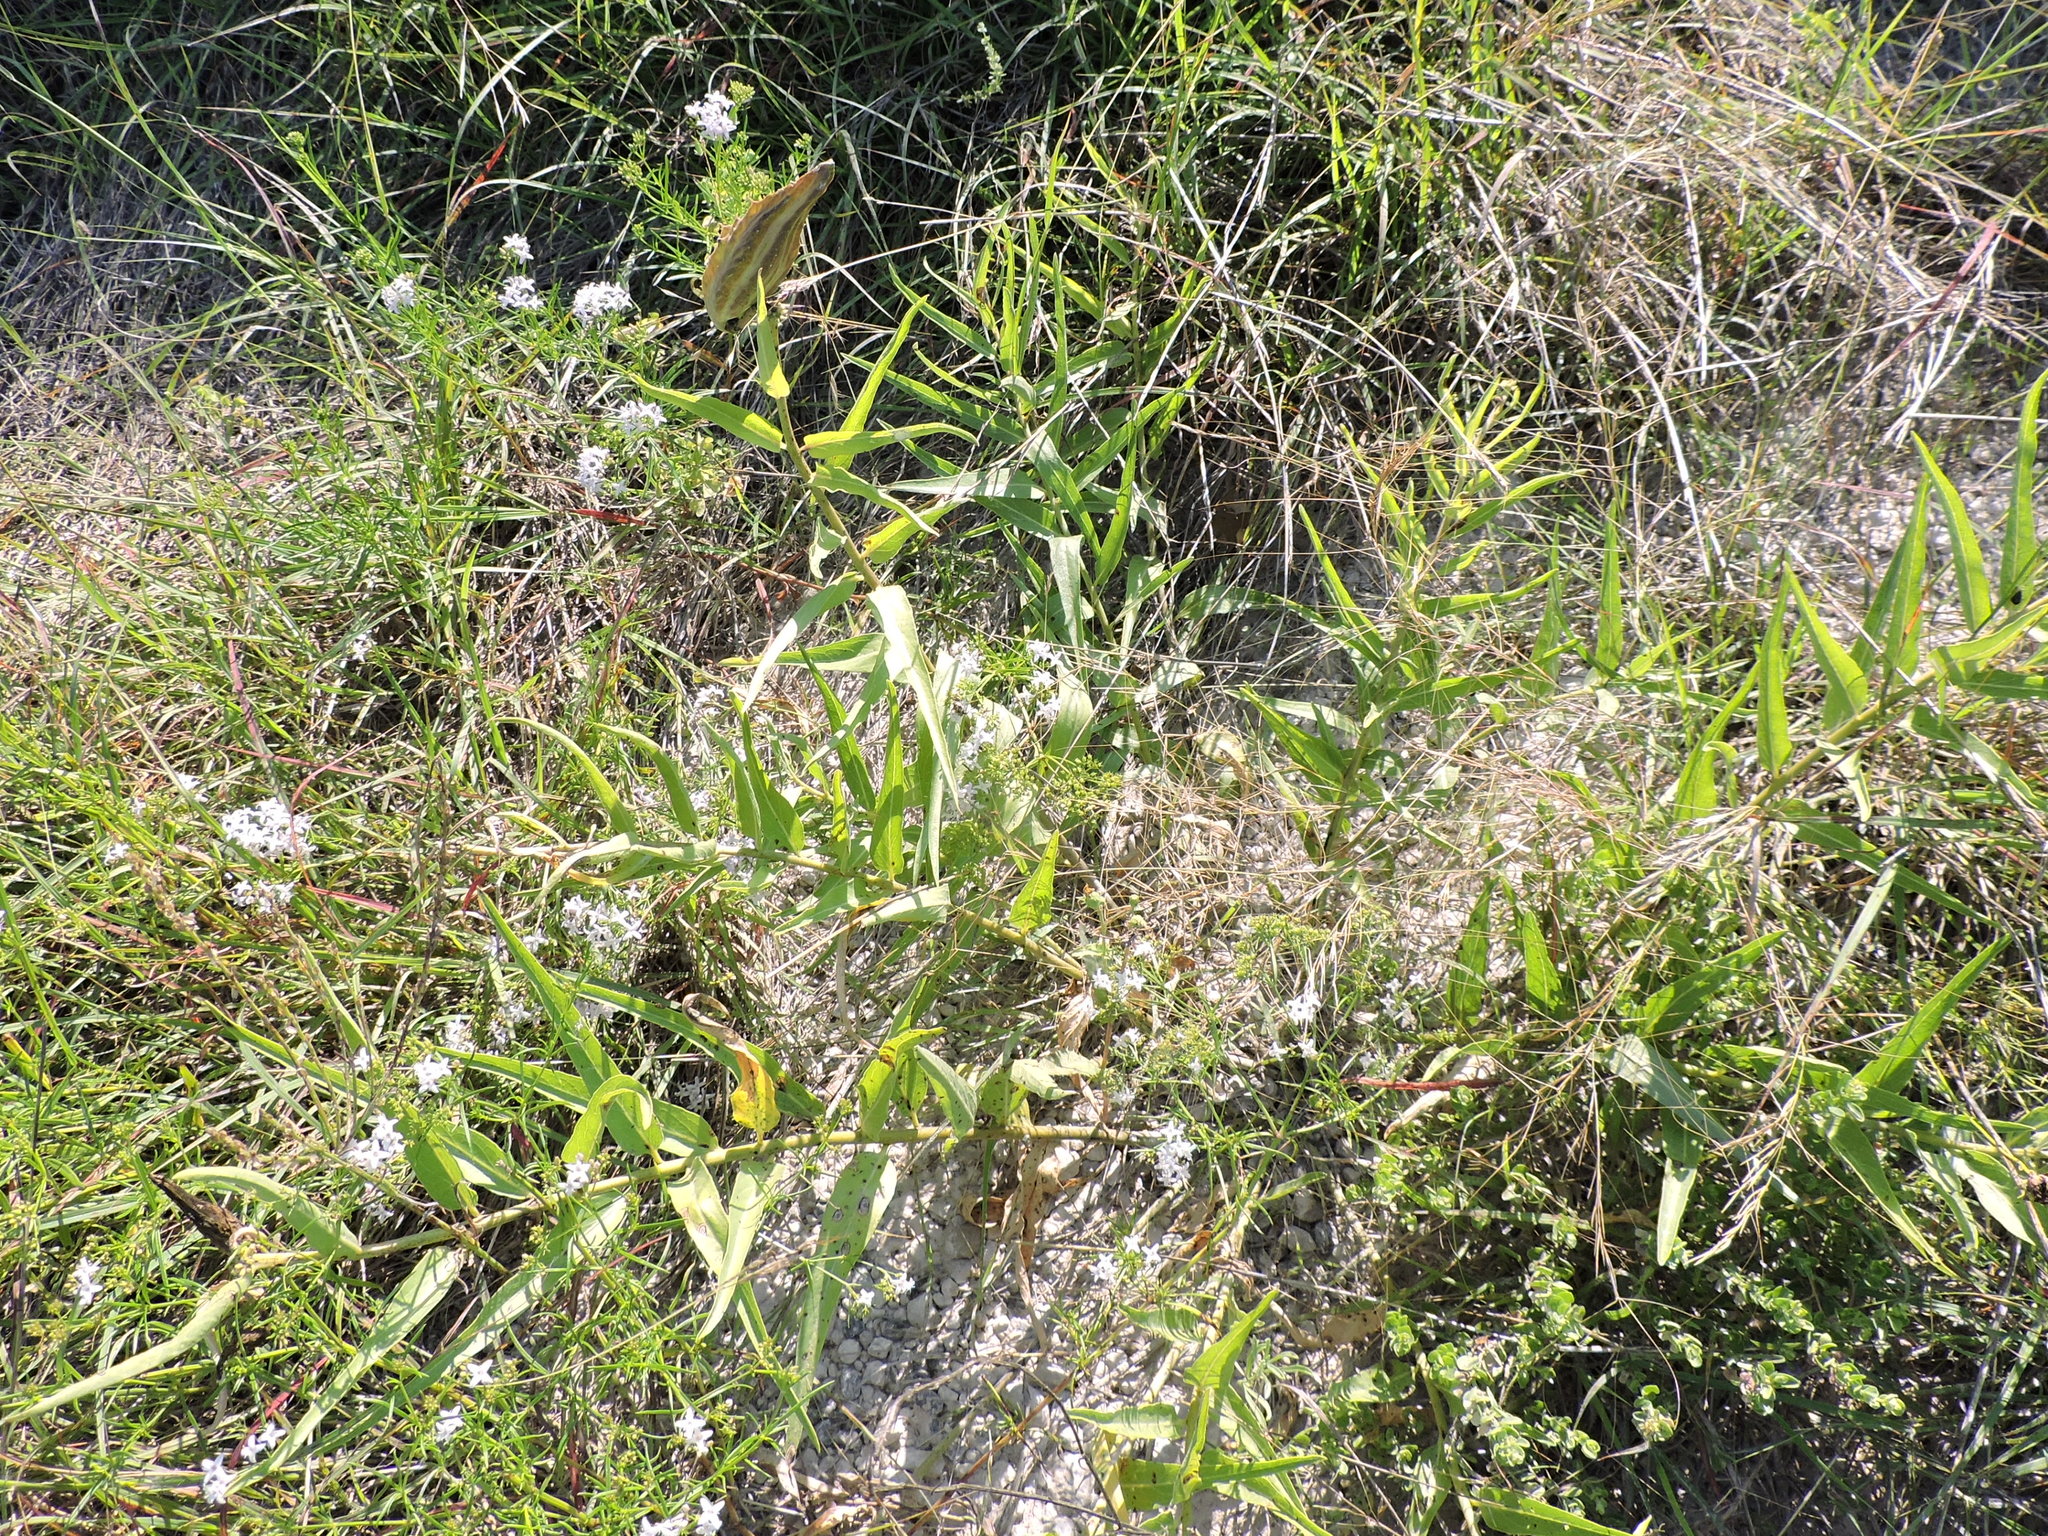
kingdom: Plantae
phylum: Tracheophyta
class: Magnoliopsida
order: Gentianales
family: Apocynaceae
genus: Asclepias
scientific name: Asclepias asperula
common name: Antelope horns
